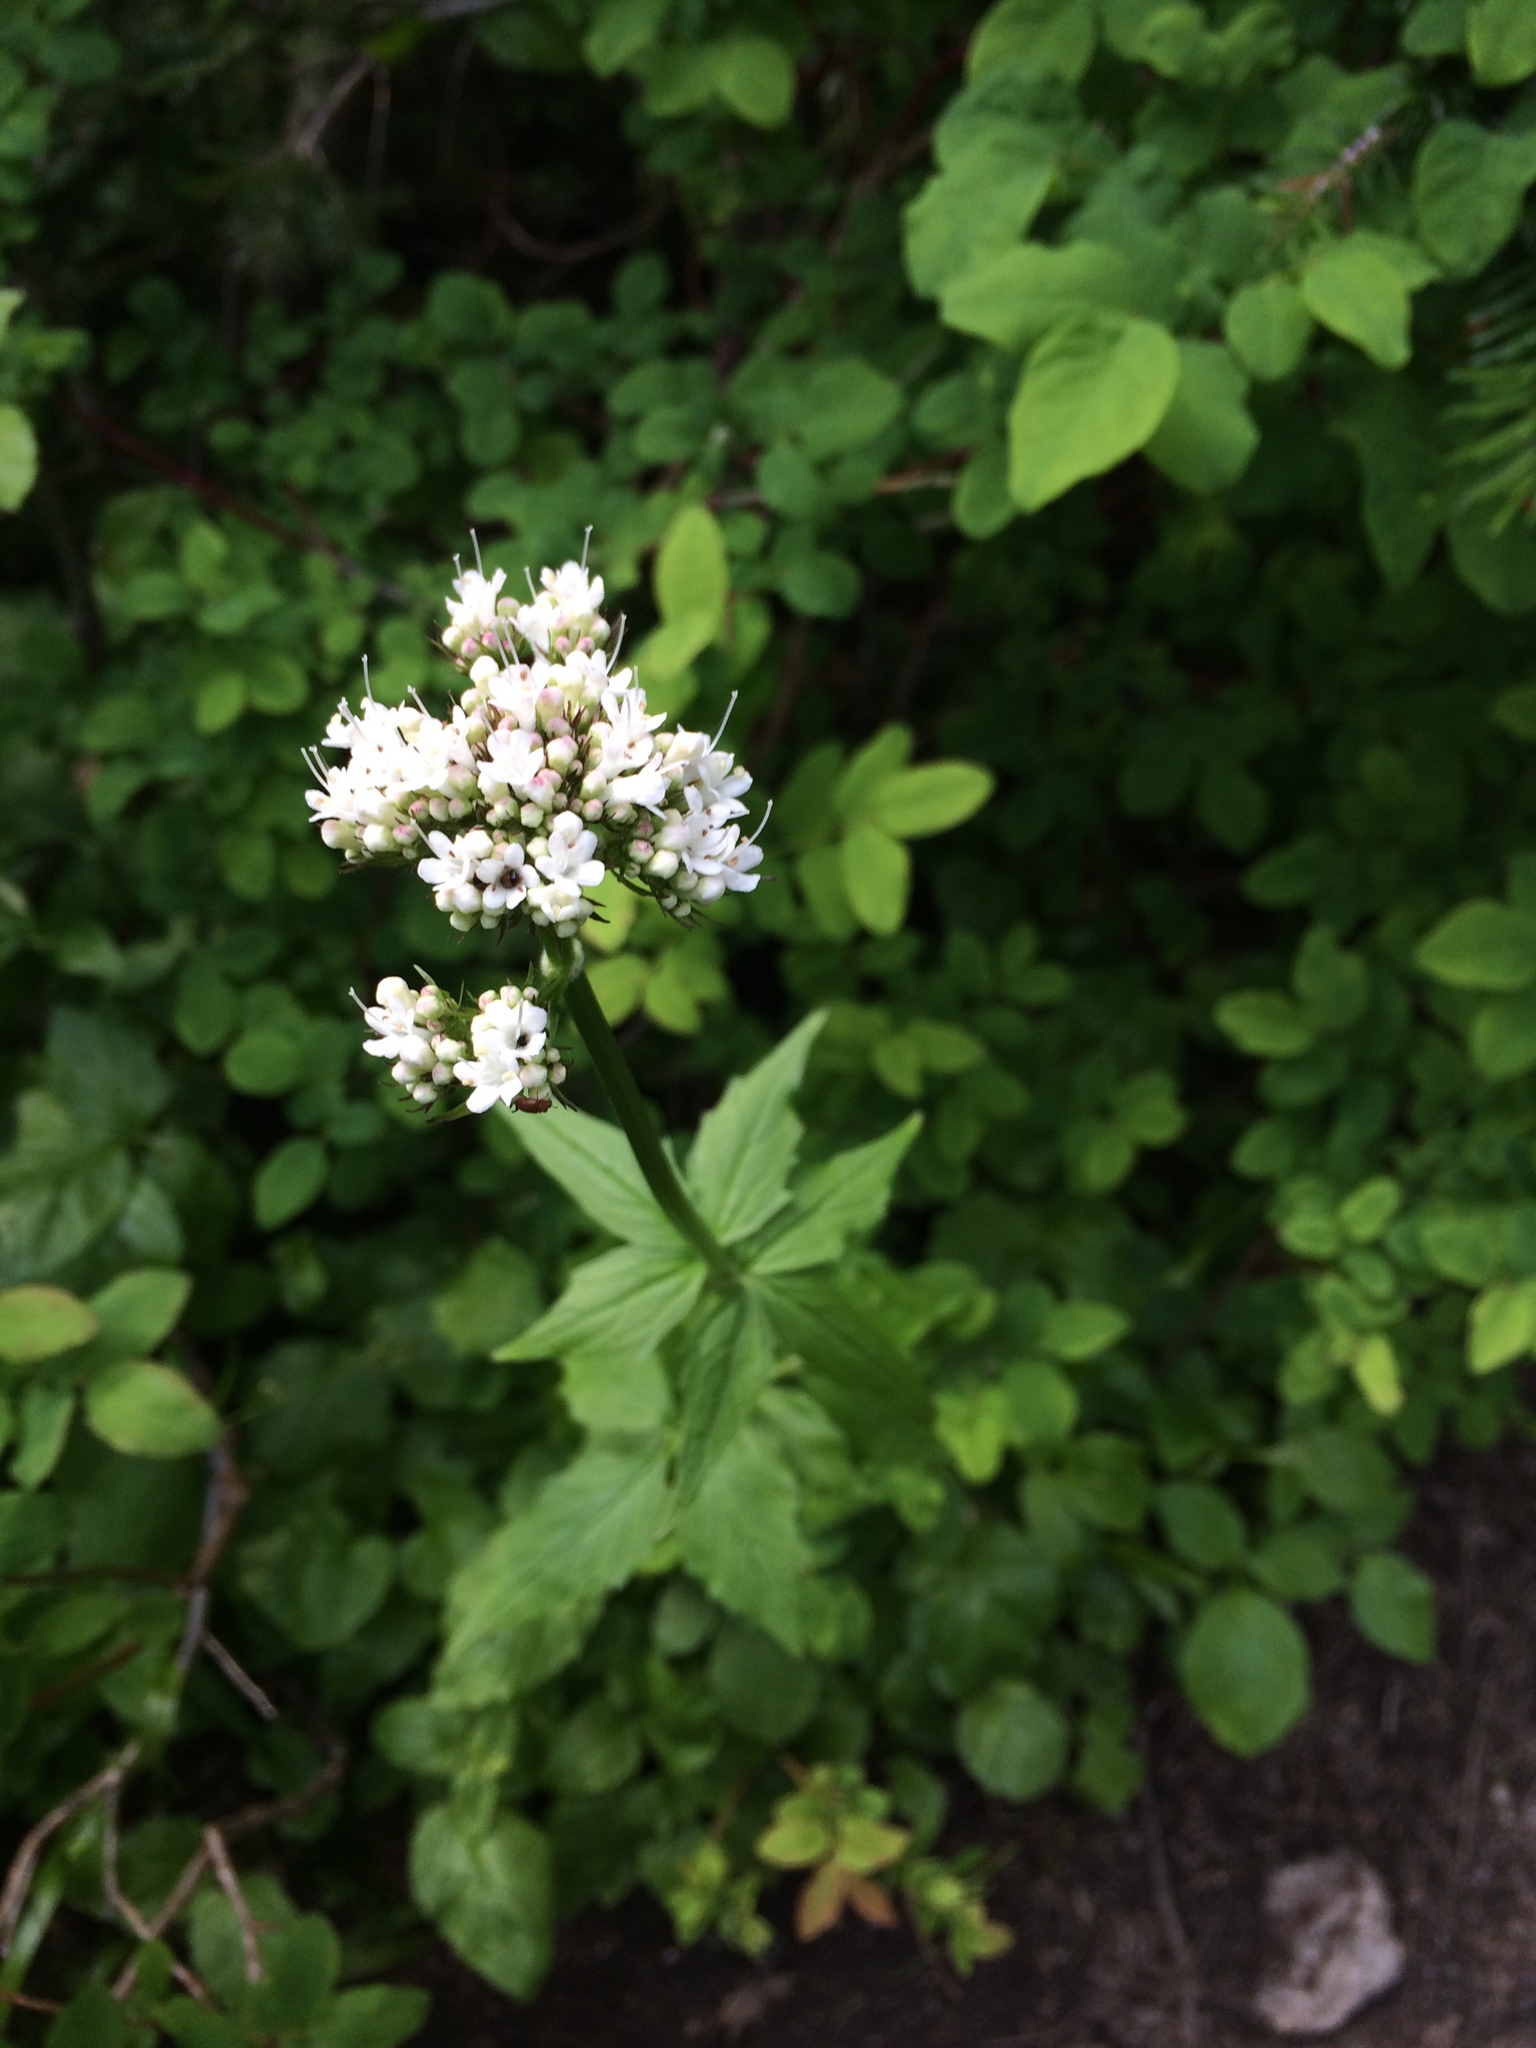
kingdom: Plantae
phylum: Tracheophyta
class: Magnoliopsida
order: Dipsacales
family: Caprifoliaceae
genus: Valeriana
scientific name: Valeriana sitchensis
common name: Pacific valerian
